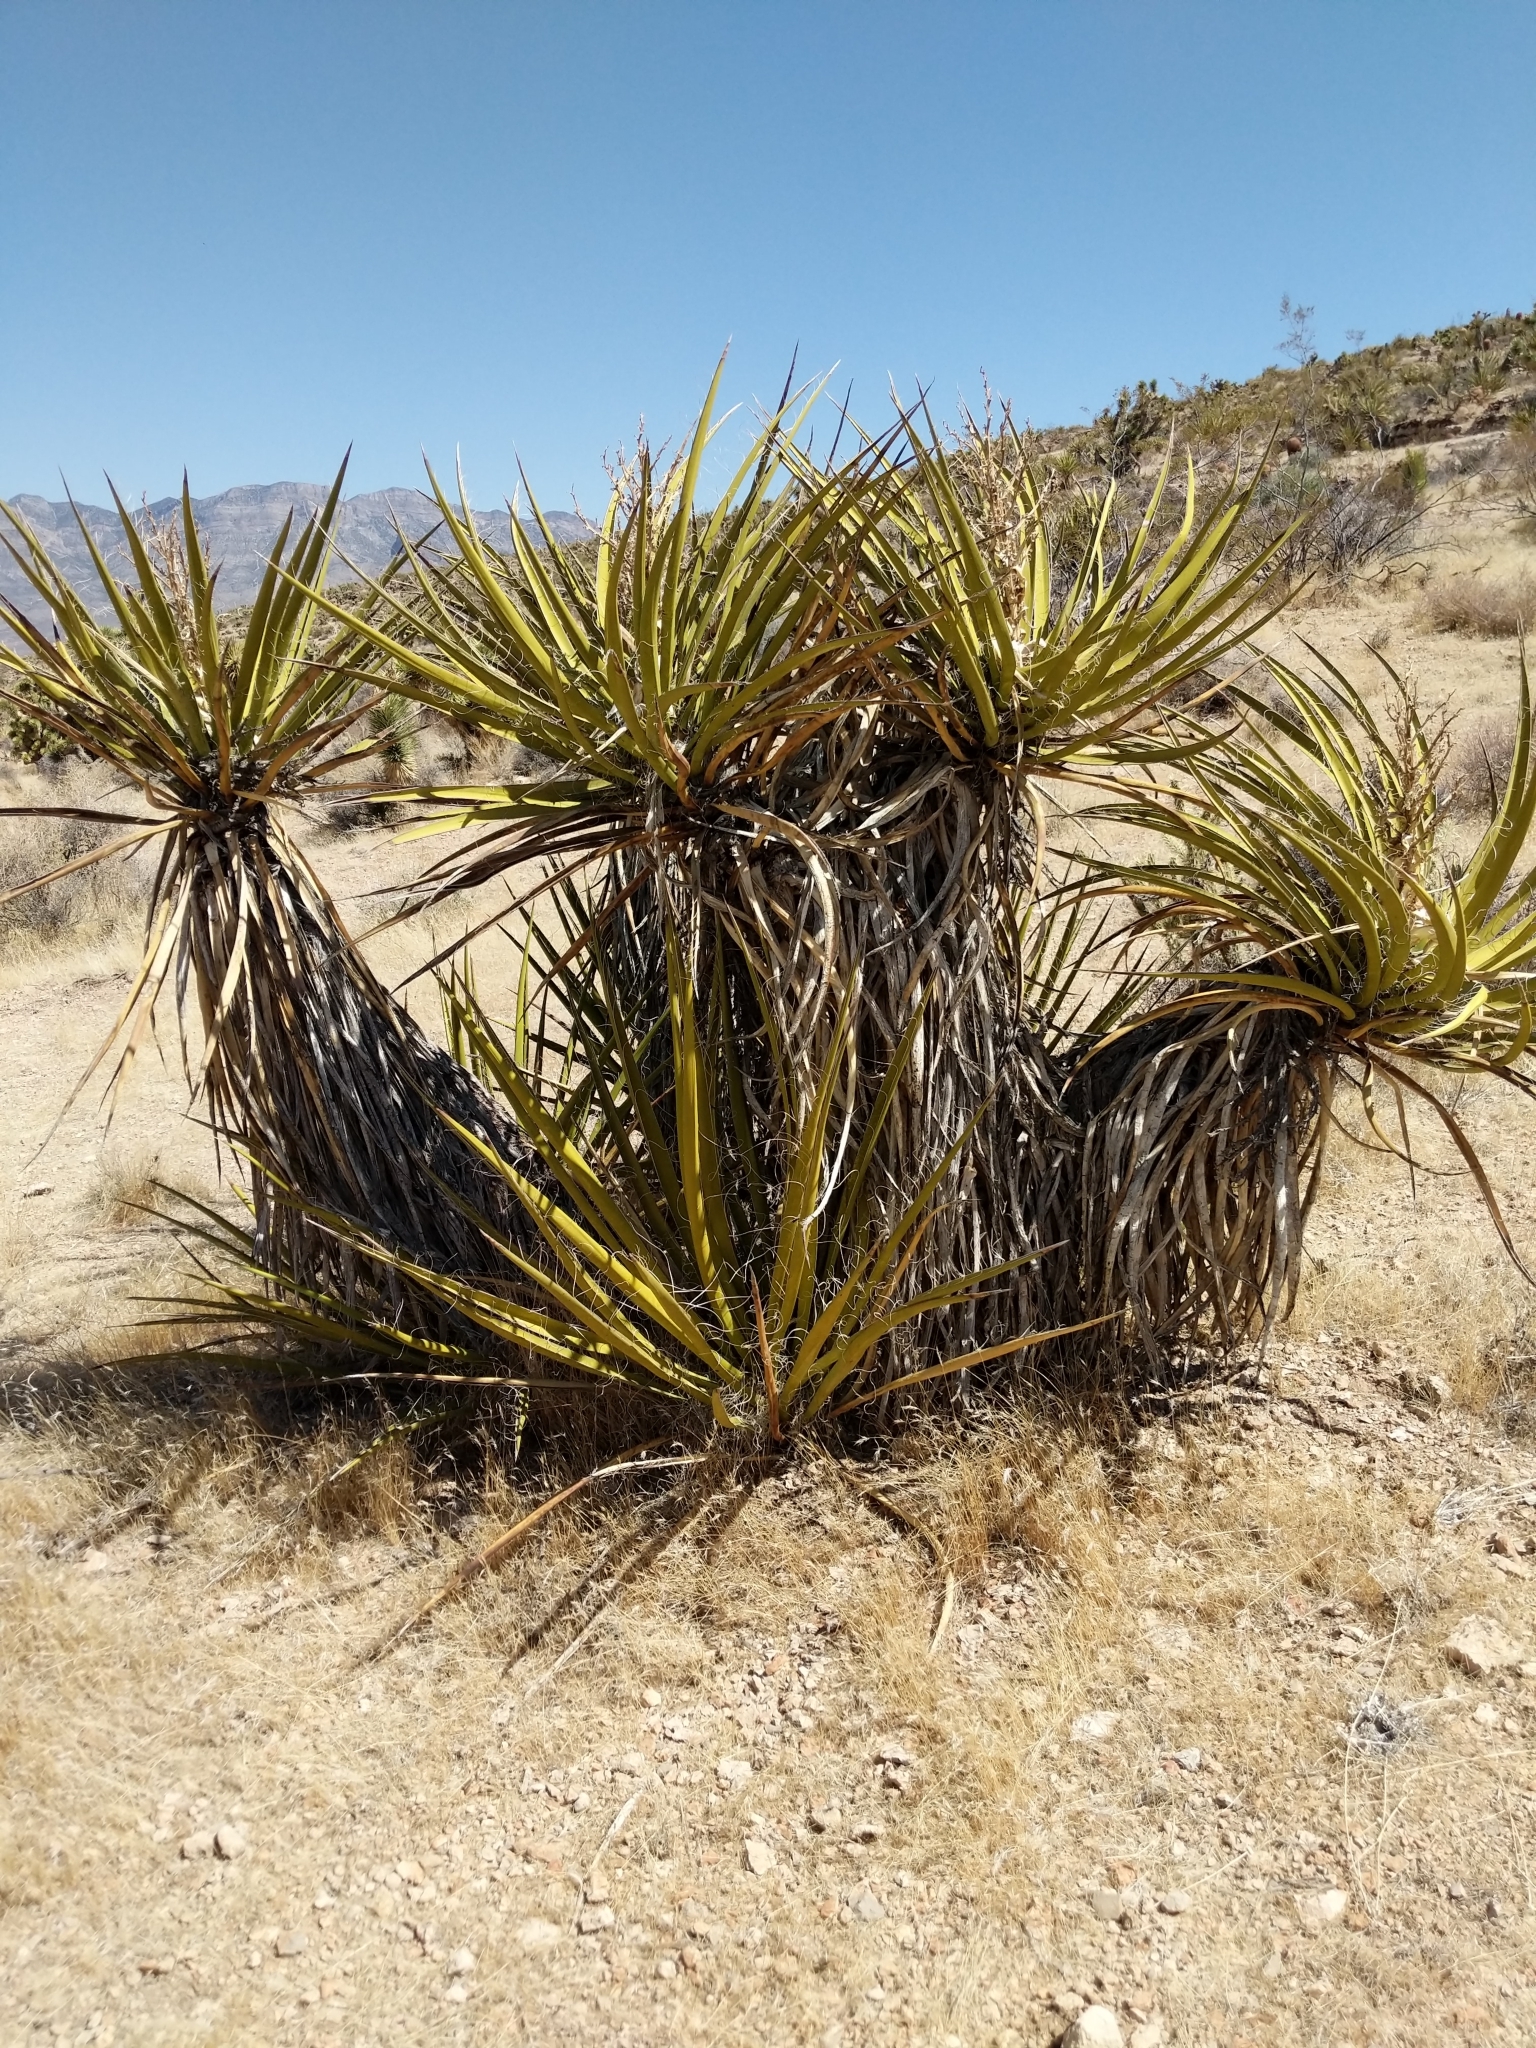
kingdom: Plantae
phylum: Tracheophyta
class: Liliopsida
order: Asparagales
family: Asparagaceae
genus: Yucca
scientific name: Yucca schidigera
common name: Mojave yucca
